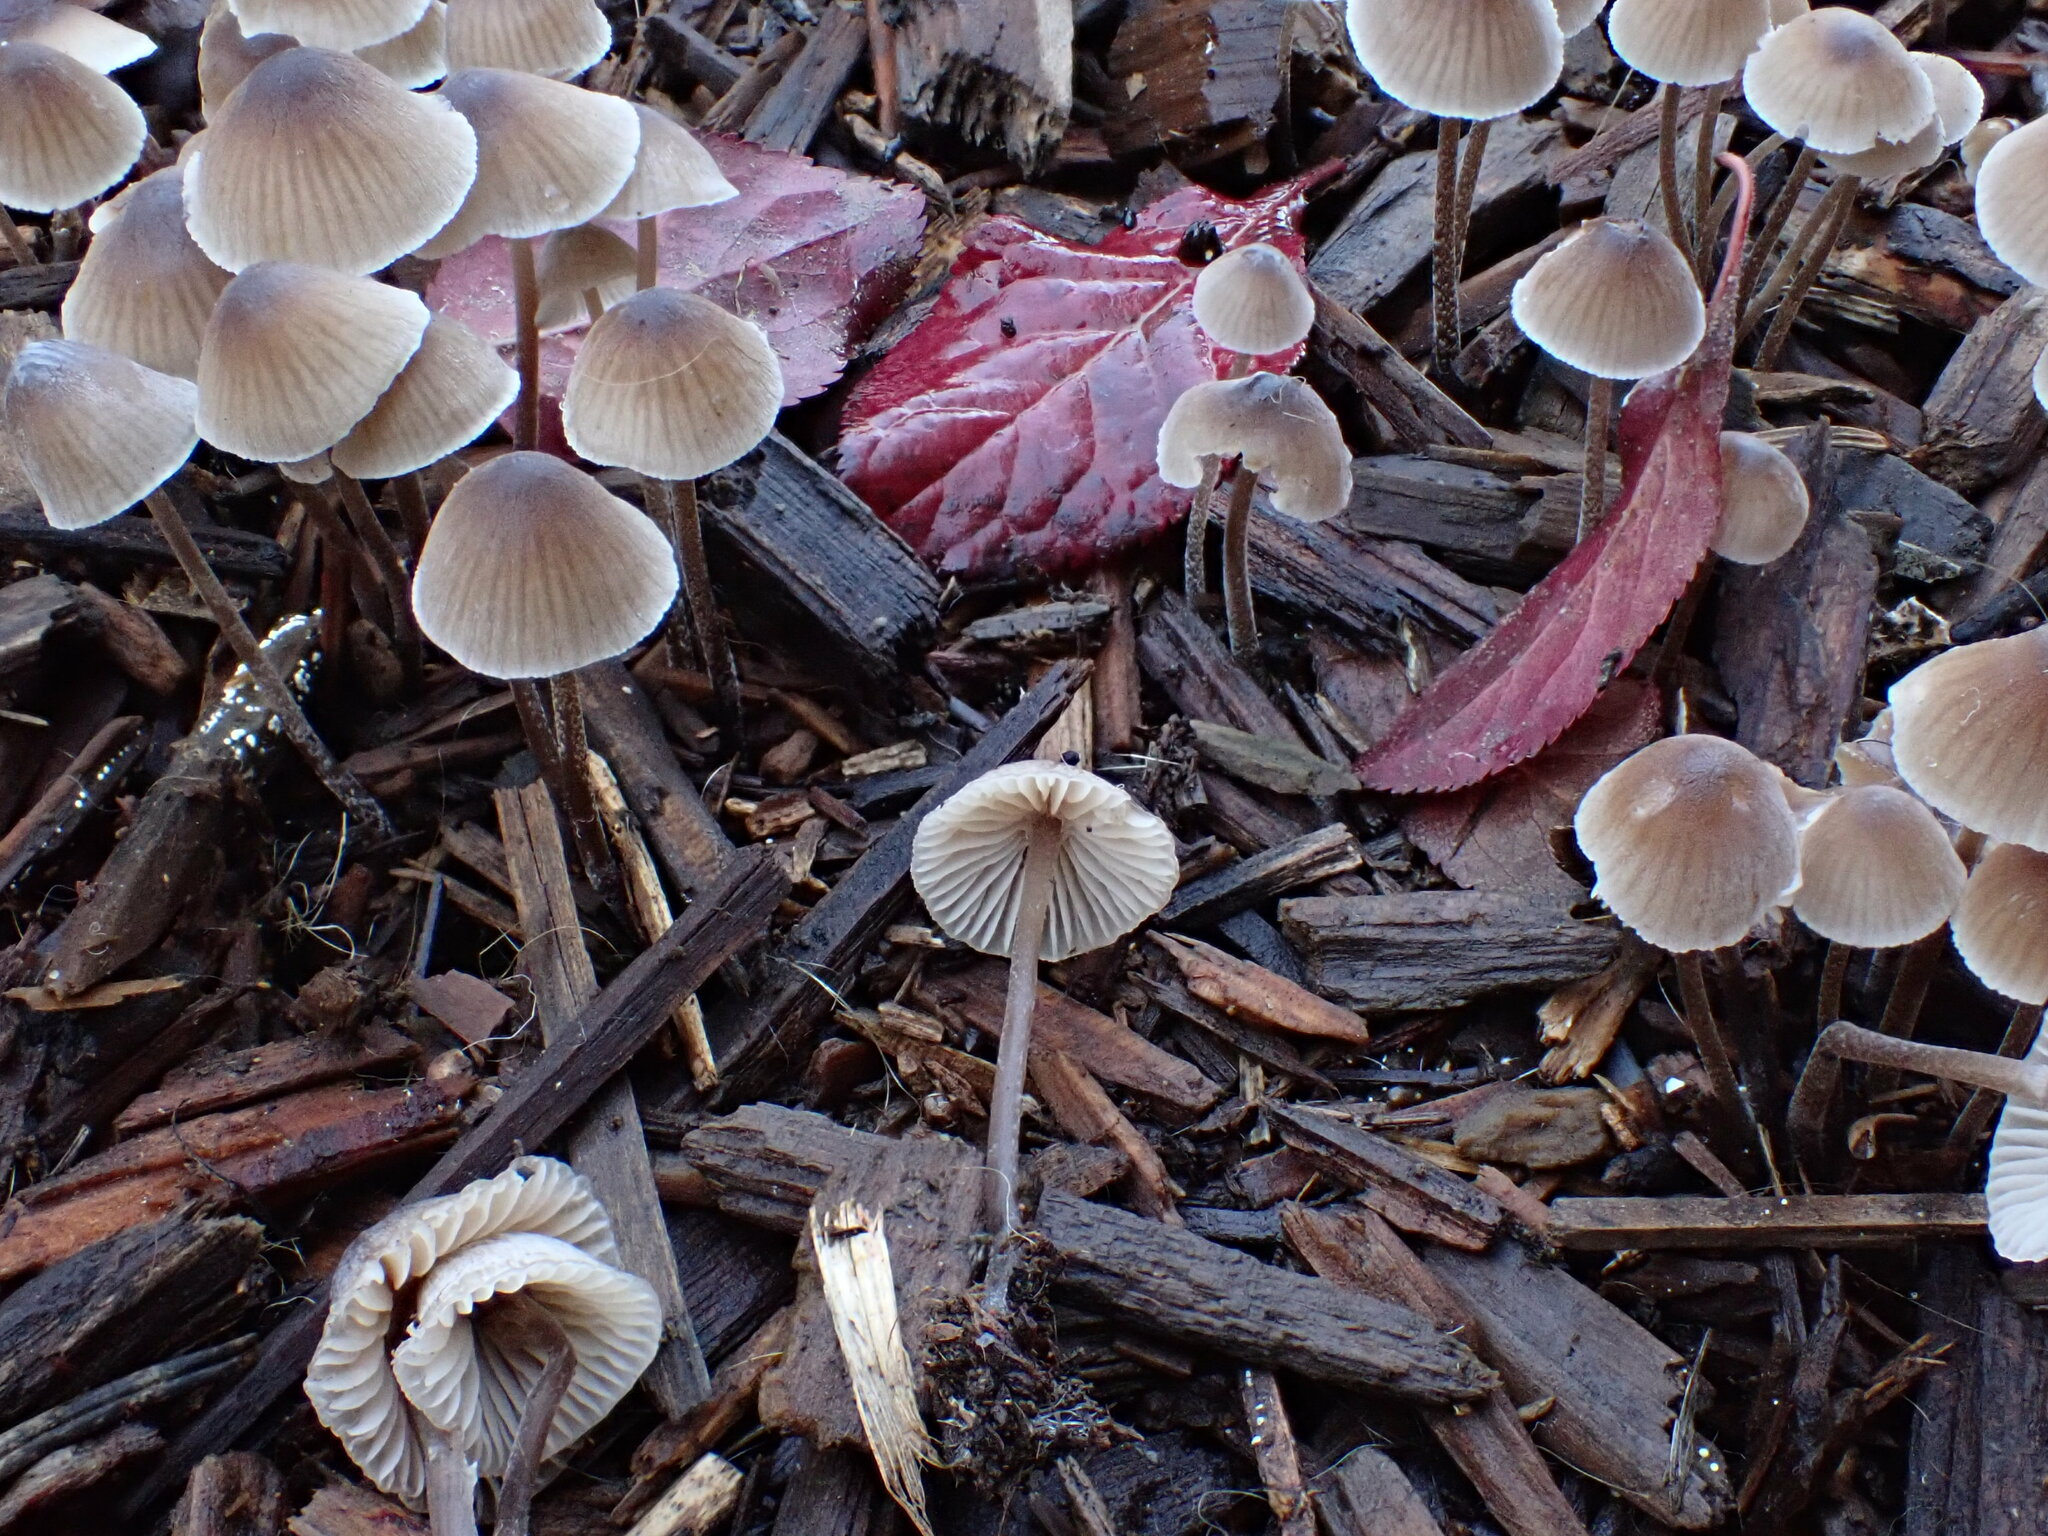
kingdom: Fungi
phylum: Basidiomycota
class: Agaricomycetes
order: Agaricales
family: Mycenaceae
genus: Mycena
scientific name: Mycena leptocephala
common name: Nitrous bonnet
